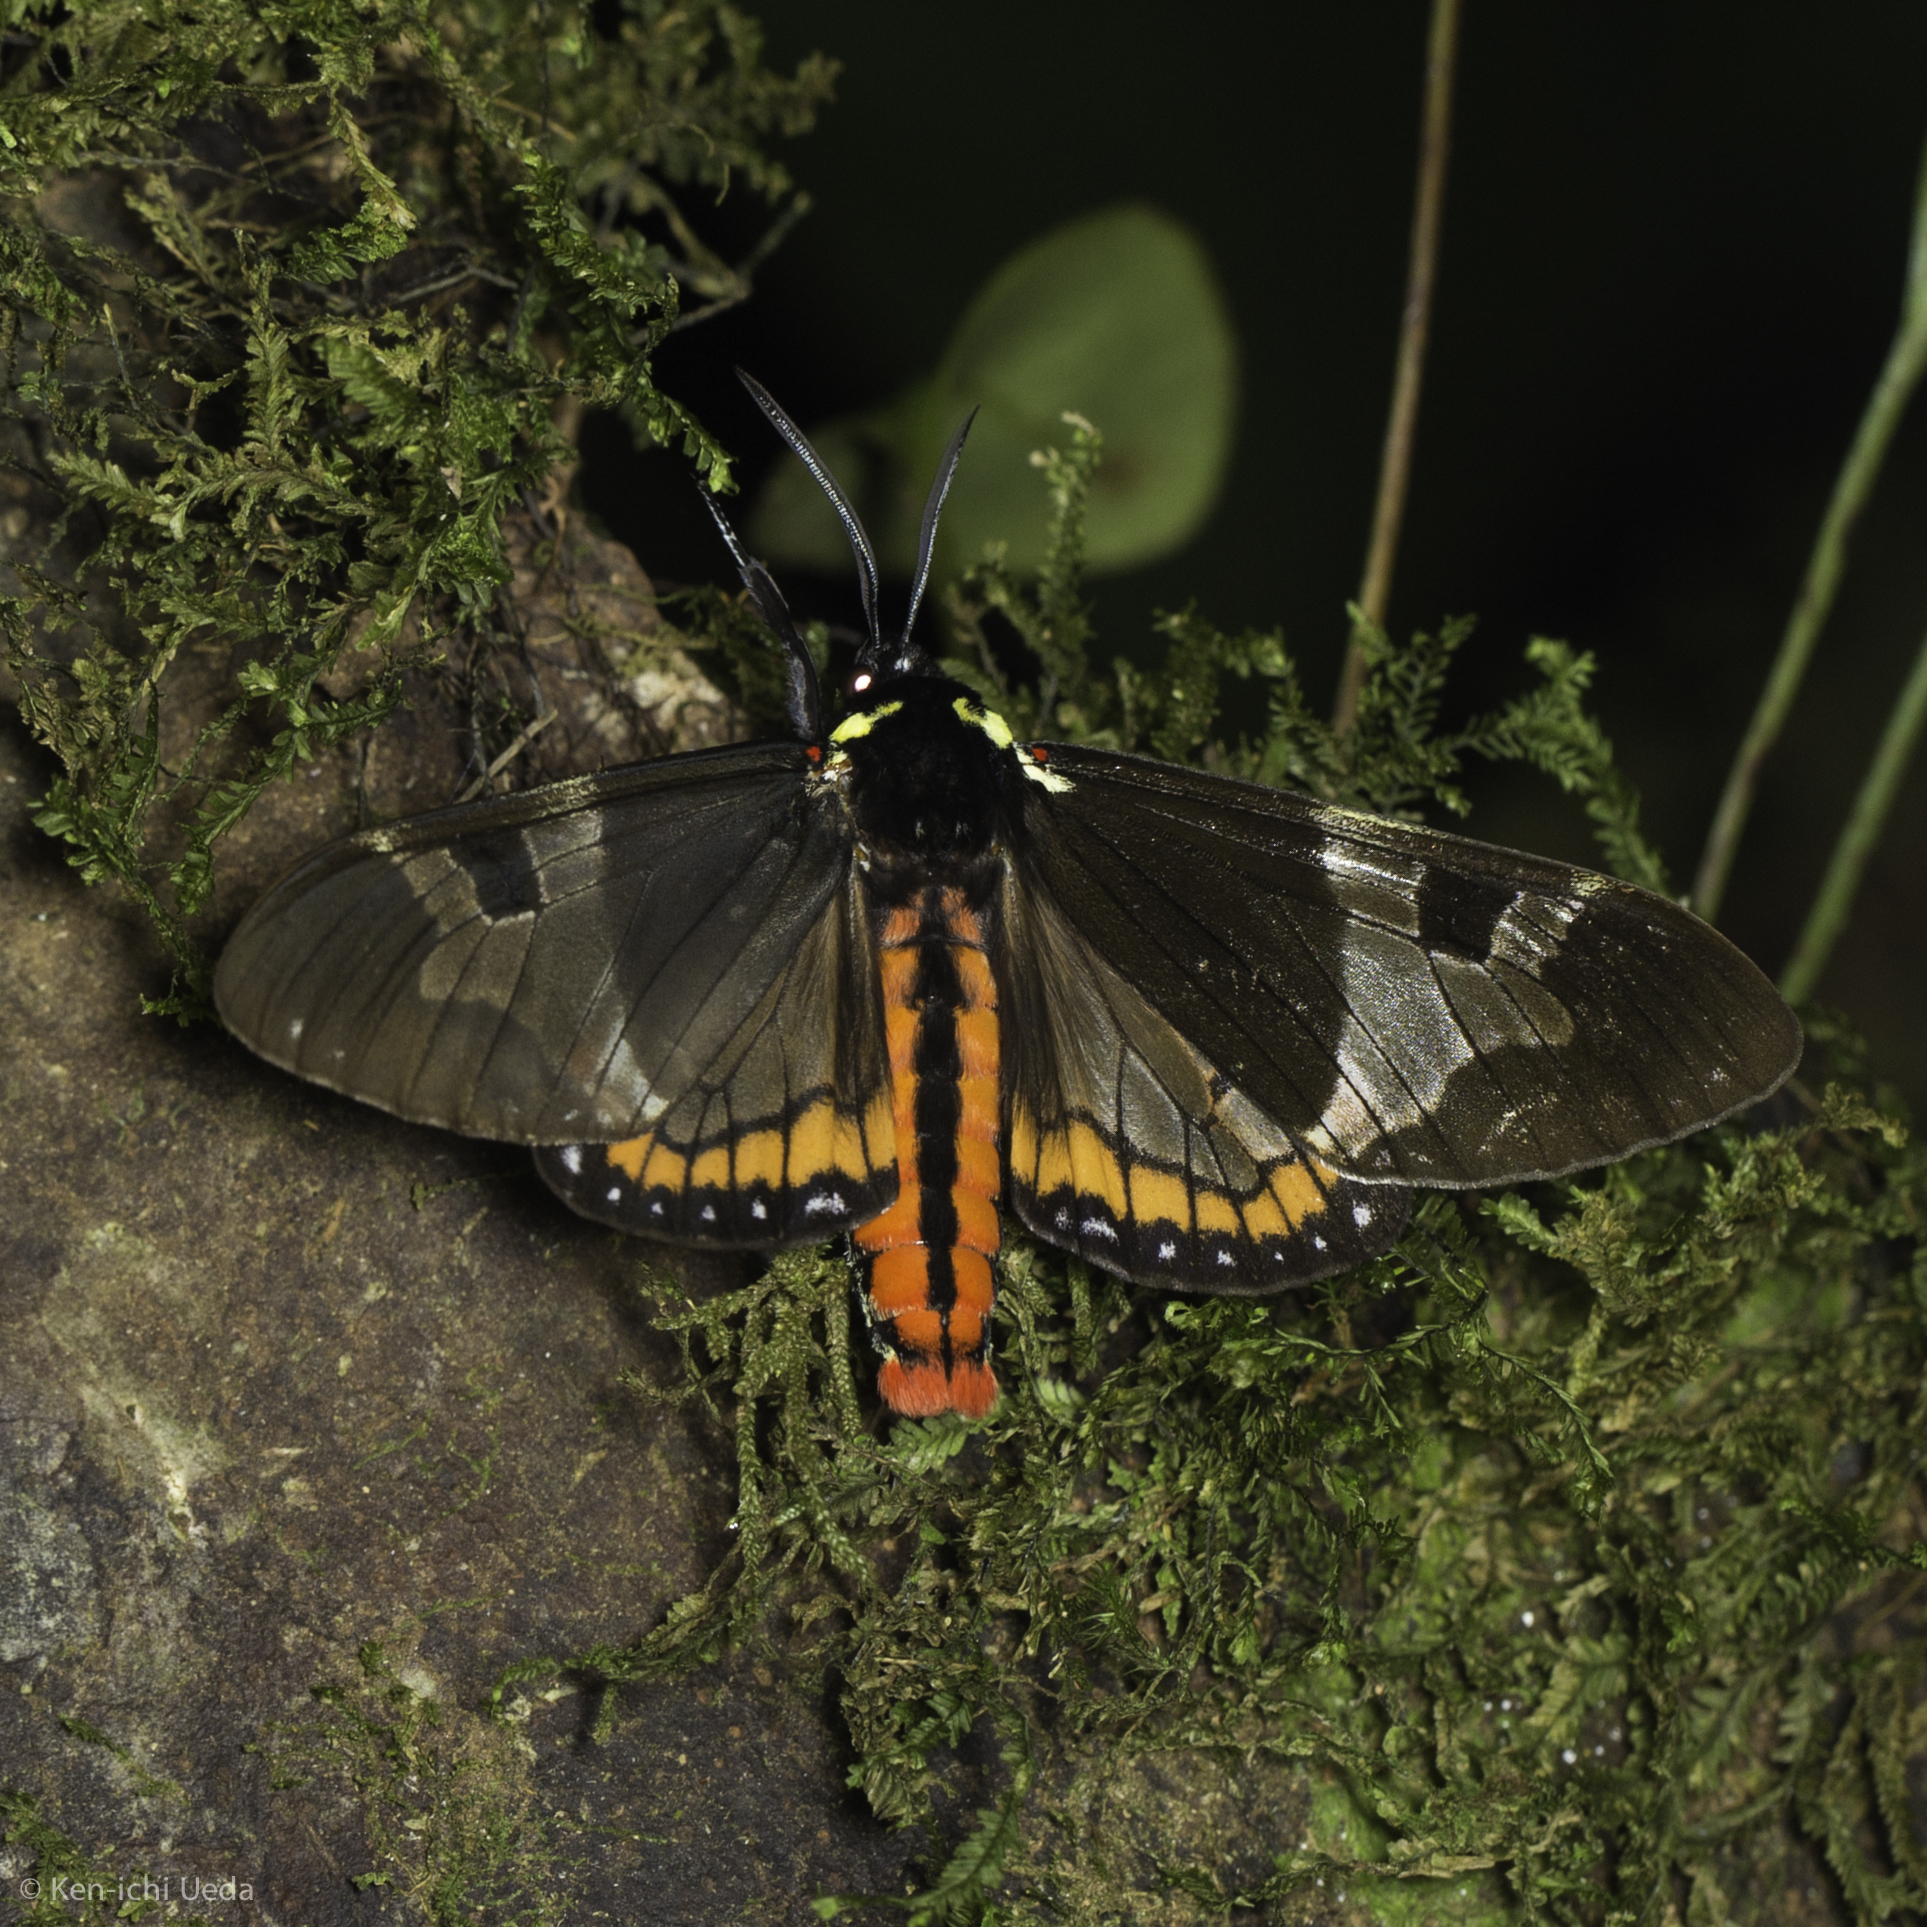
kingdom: Animalia
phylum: Arthropoda
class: Insecta
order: Lepidoptera
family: Erebidae
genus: Dysschema
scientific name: Dysschema lycaste
